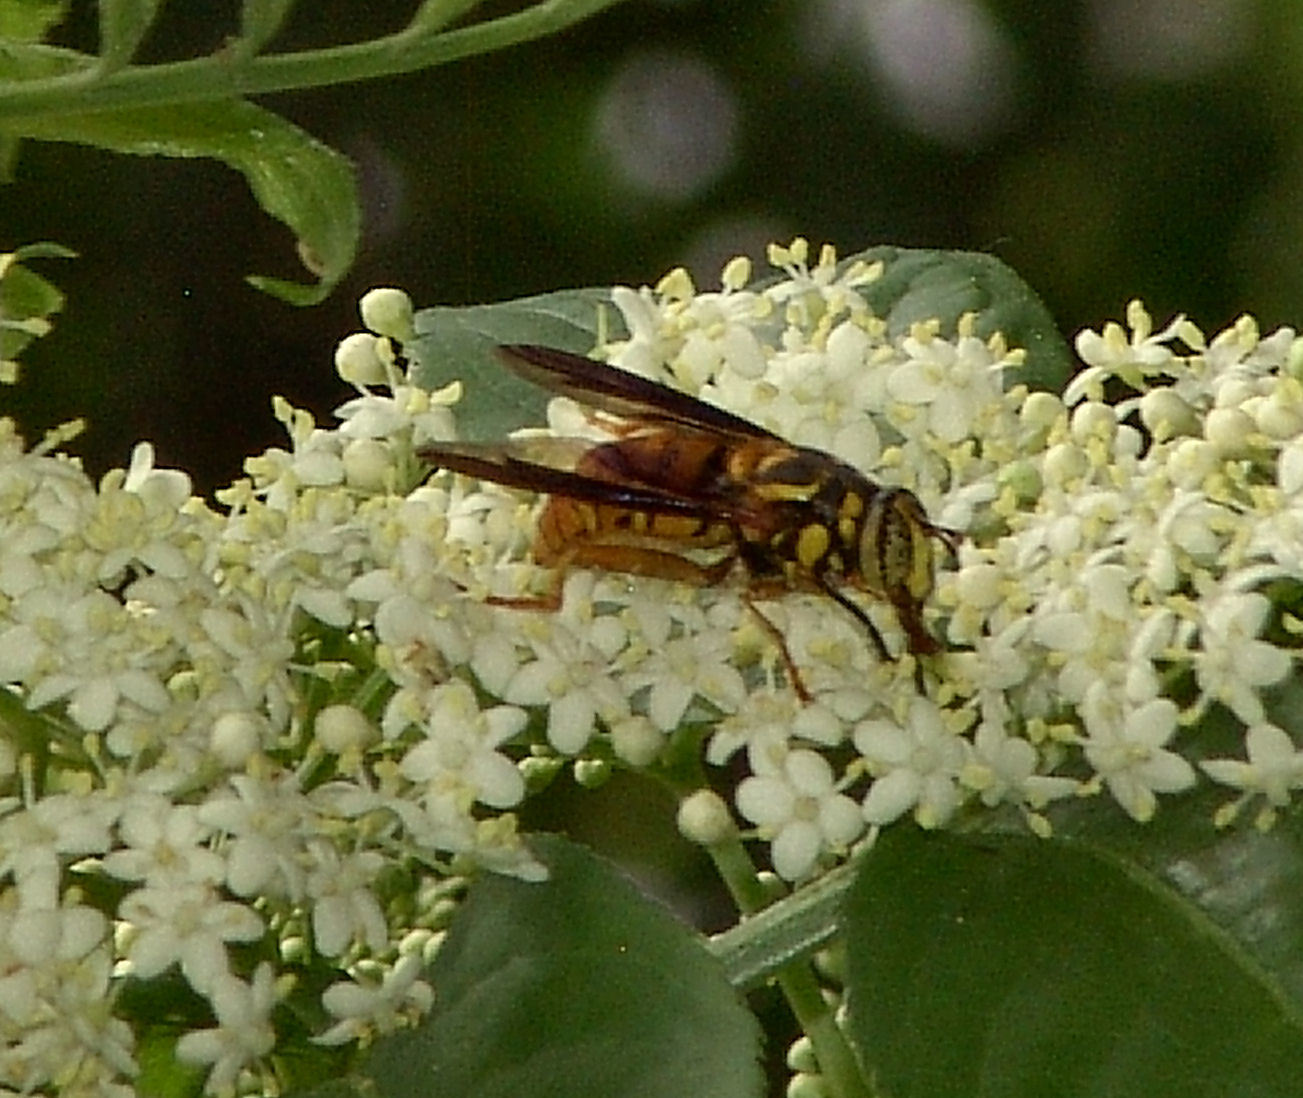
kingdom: Animalia
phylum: Arthropoda
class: Insecta
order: Diptera
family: Syrphidae
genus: Spilomyia
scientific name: Spilomyia alcimus
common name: Broad-banded hornet fly
